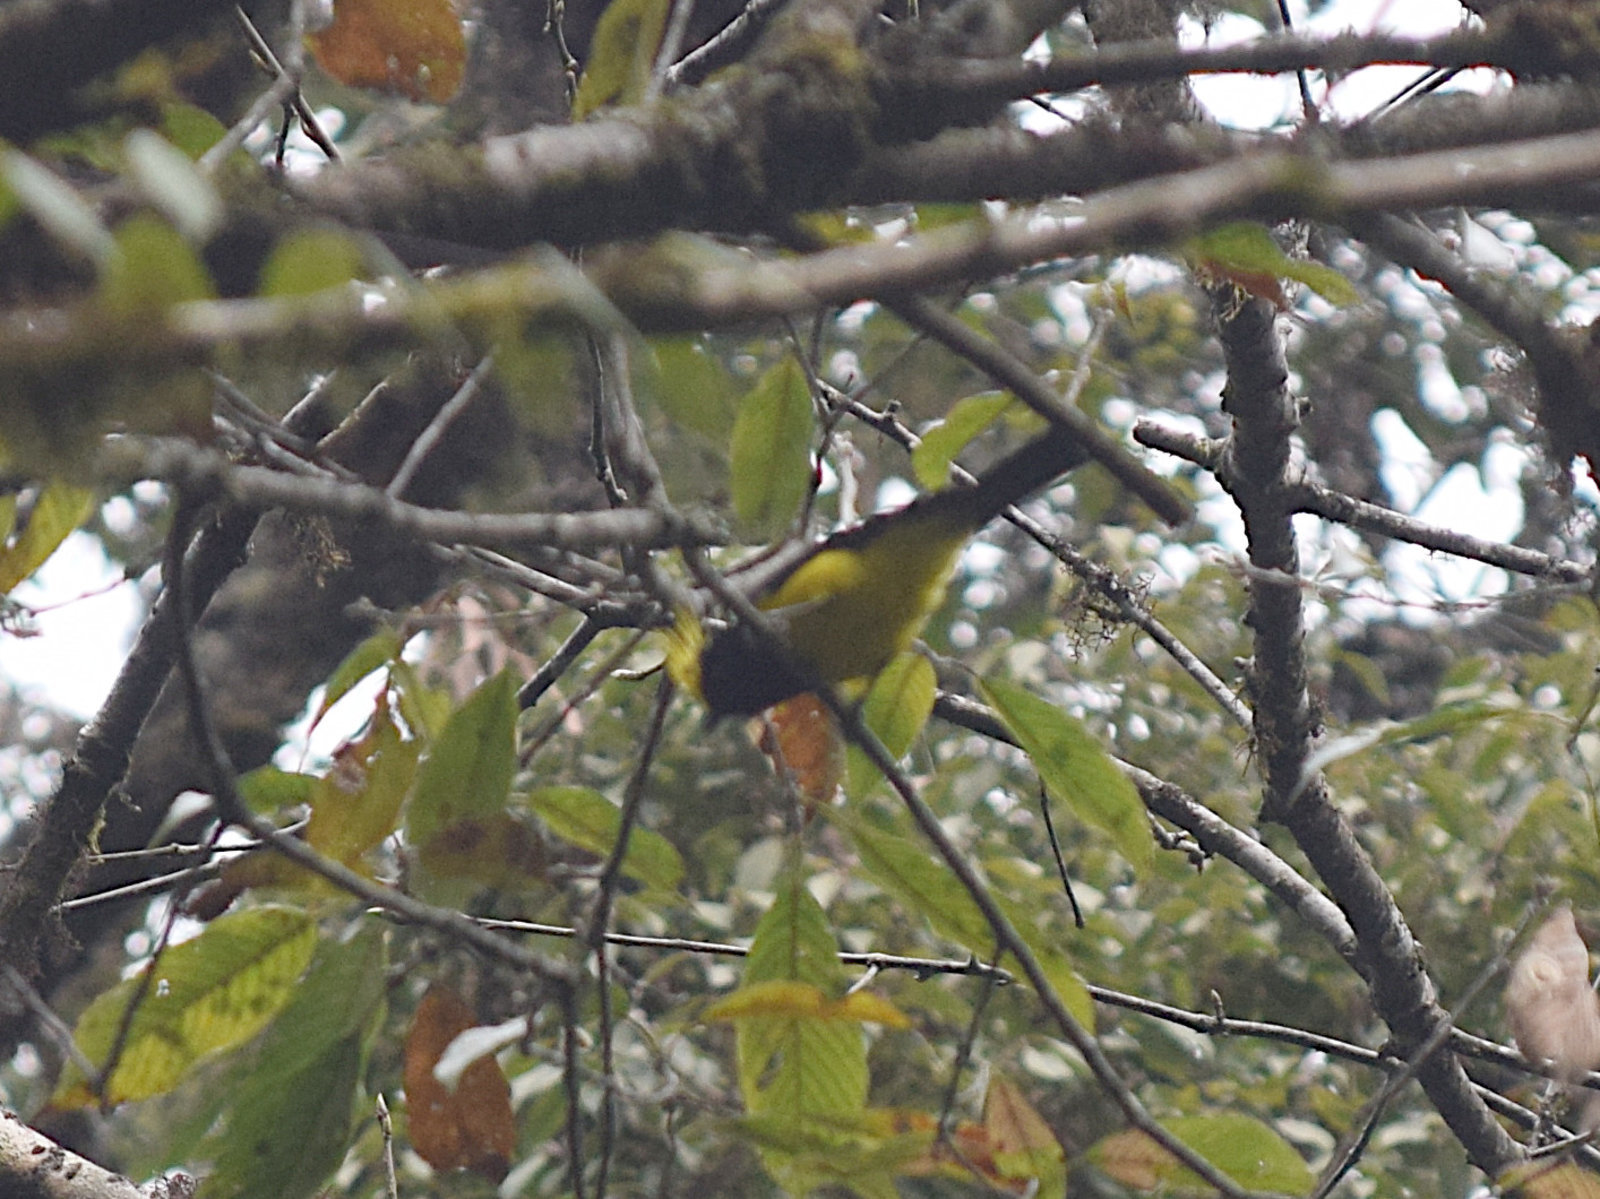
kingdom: Animalia
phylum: Chordata
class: Aves
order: Passeriformes
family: Paridae
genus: Melanochlora
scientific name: Melanochlora sultanea
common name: Sultan tit
